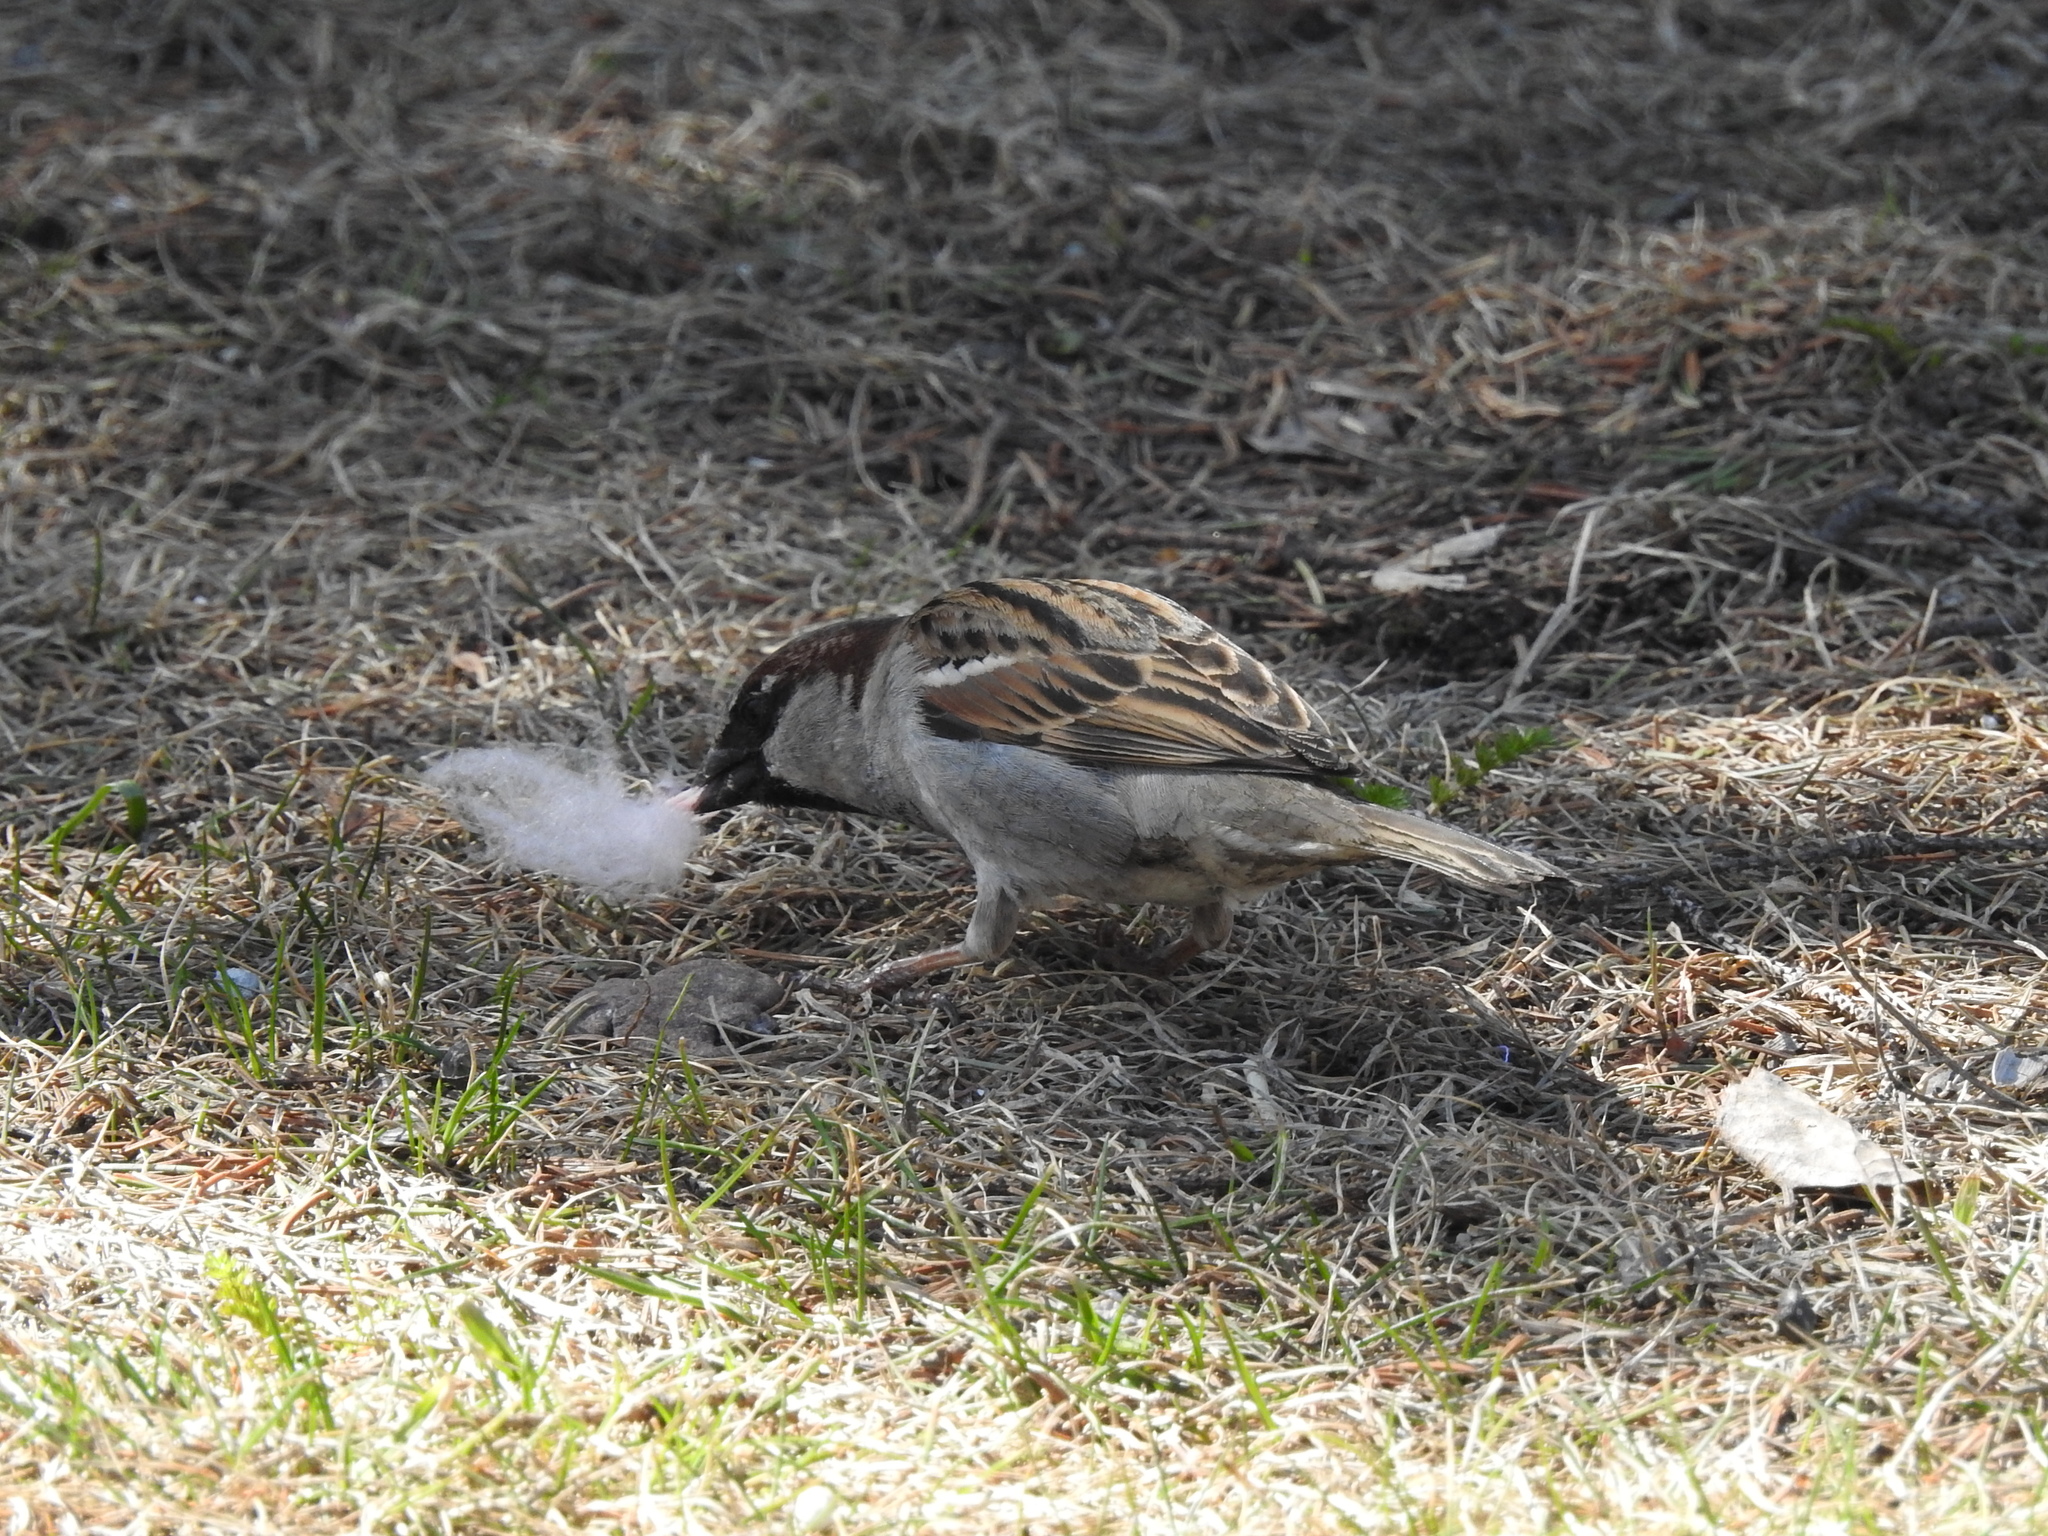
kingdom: Animalia
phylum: Chordata
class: Aves
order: Passeriformes
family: Passeridae
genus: Passer
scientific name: Passer domesticus
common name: House sparrow
